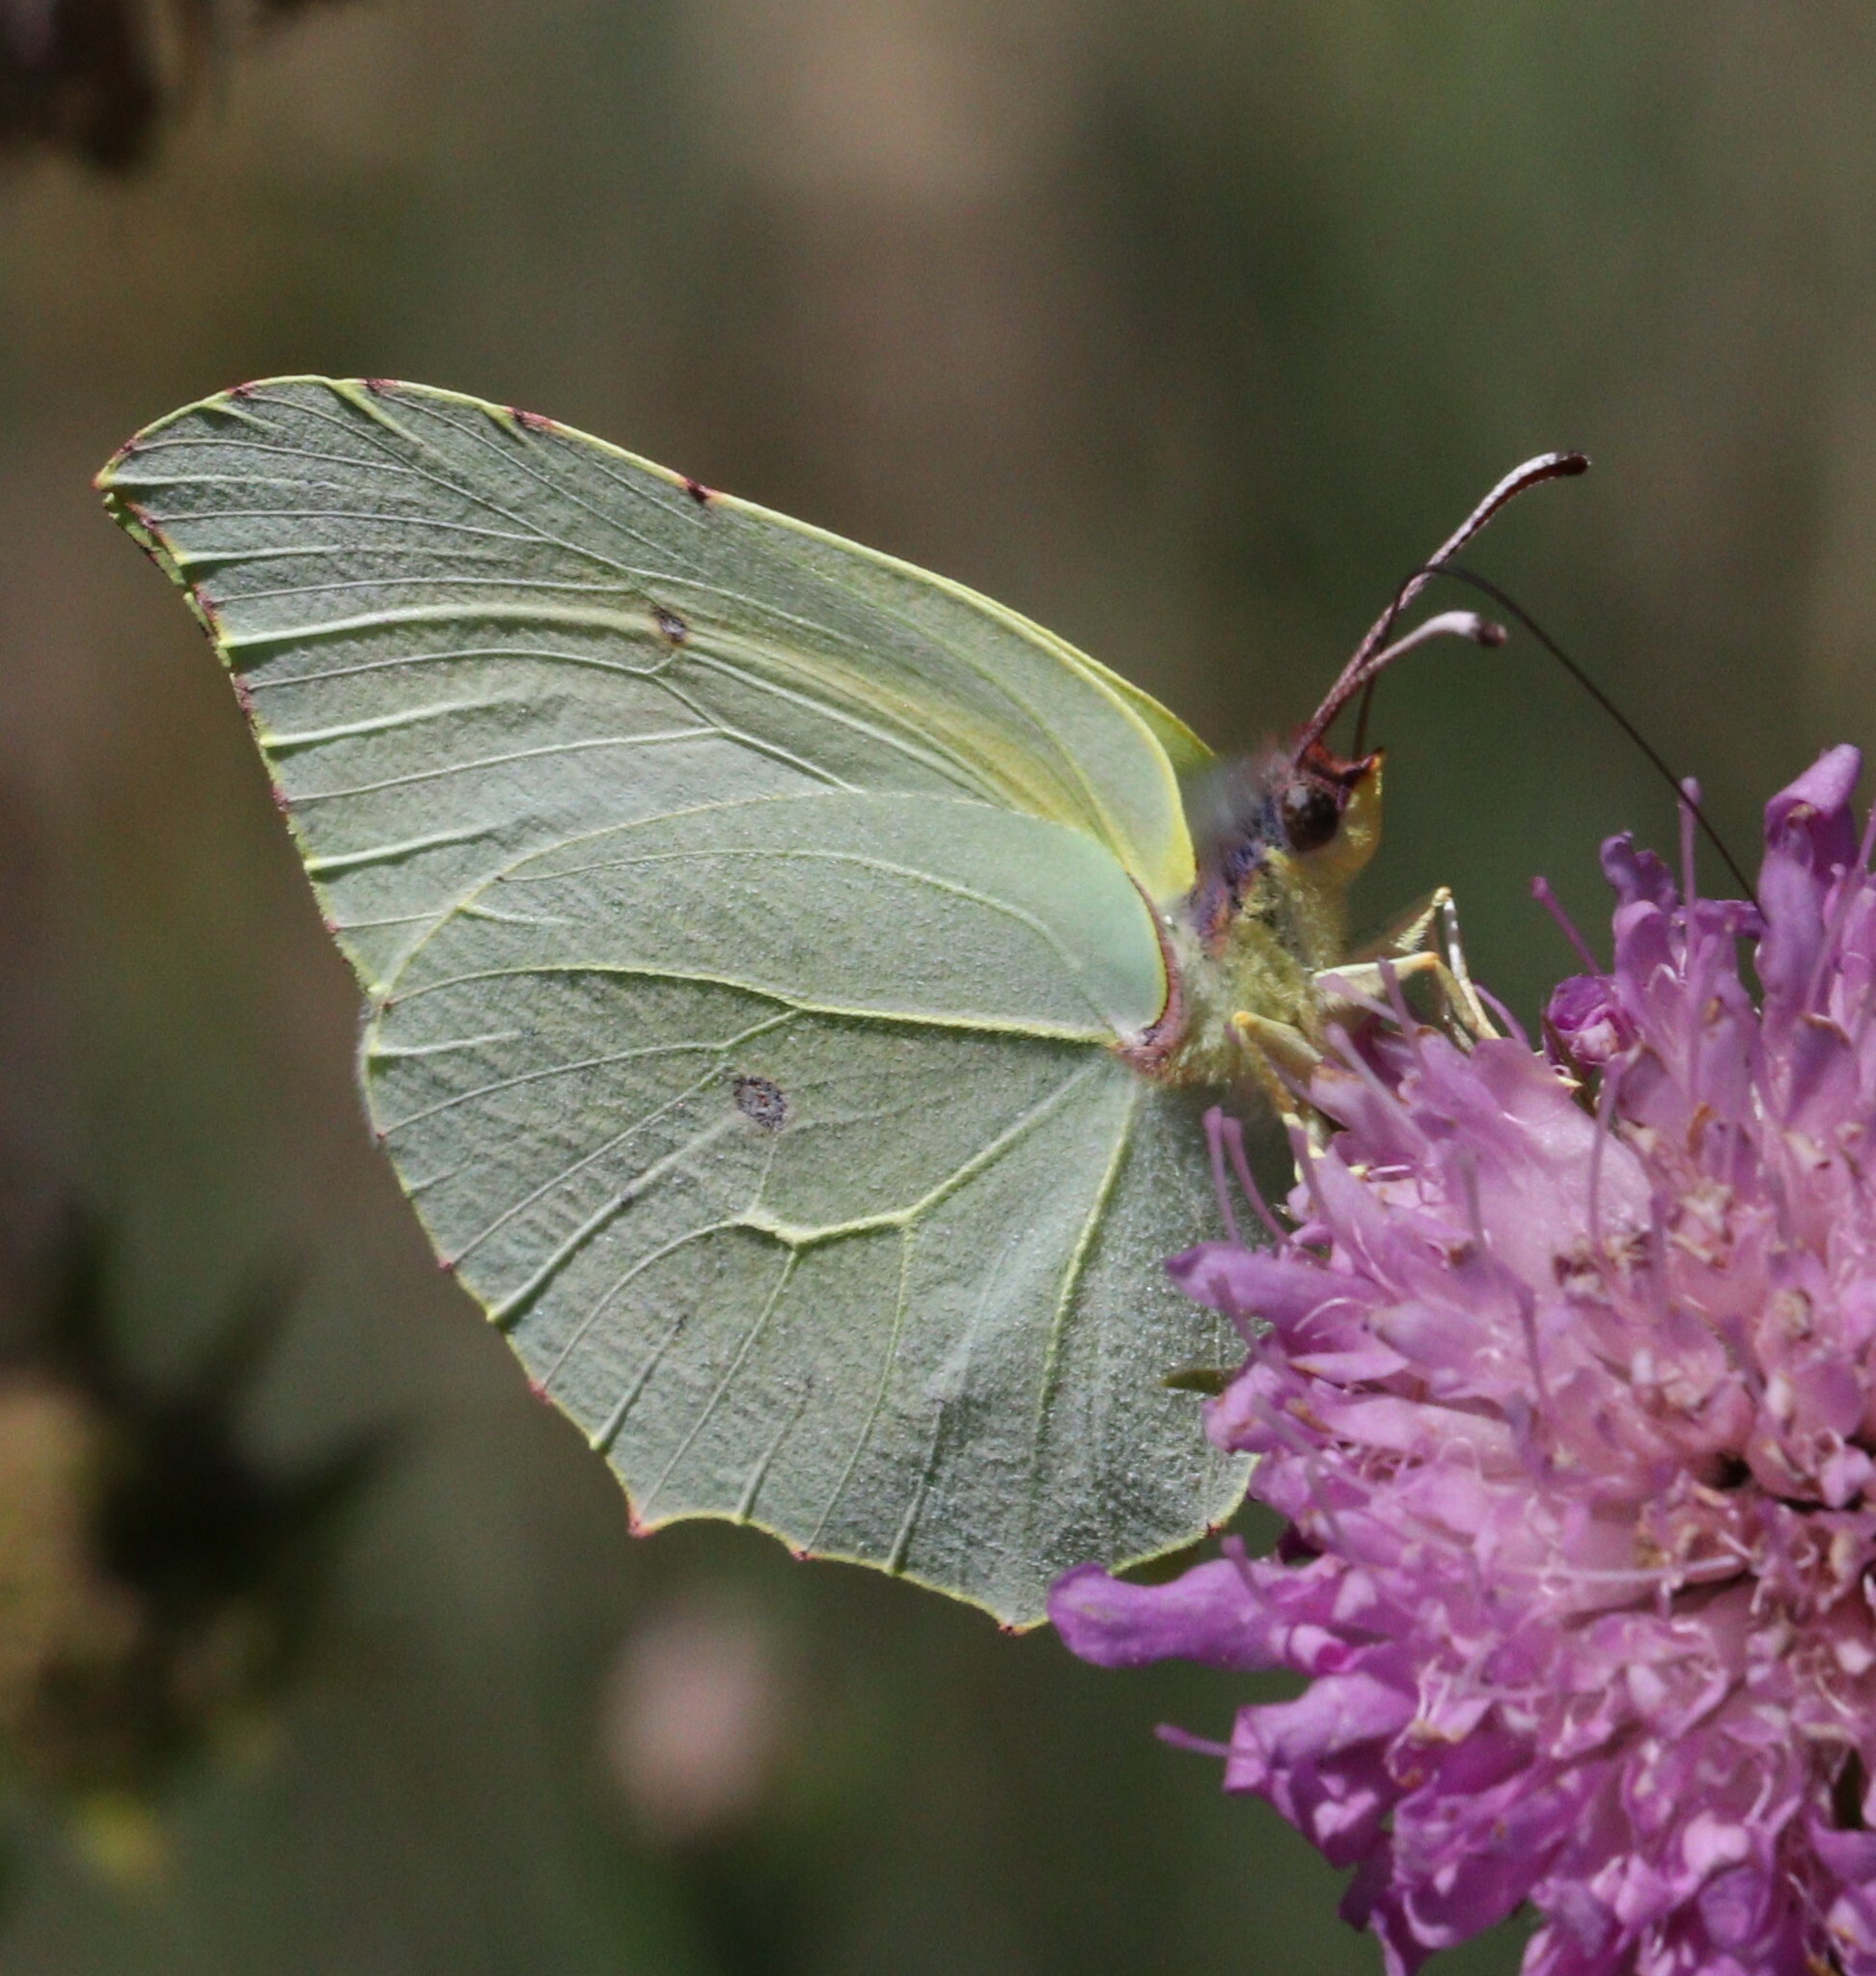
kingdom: Animalia
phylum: Arthropoda
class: Insecta
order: Lepidoptera
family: Pieridae
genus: Gonepteryx
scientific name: Gonepteryx rhamni
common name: Brimstone
